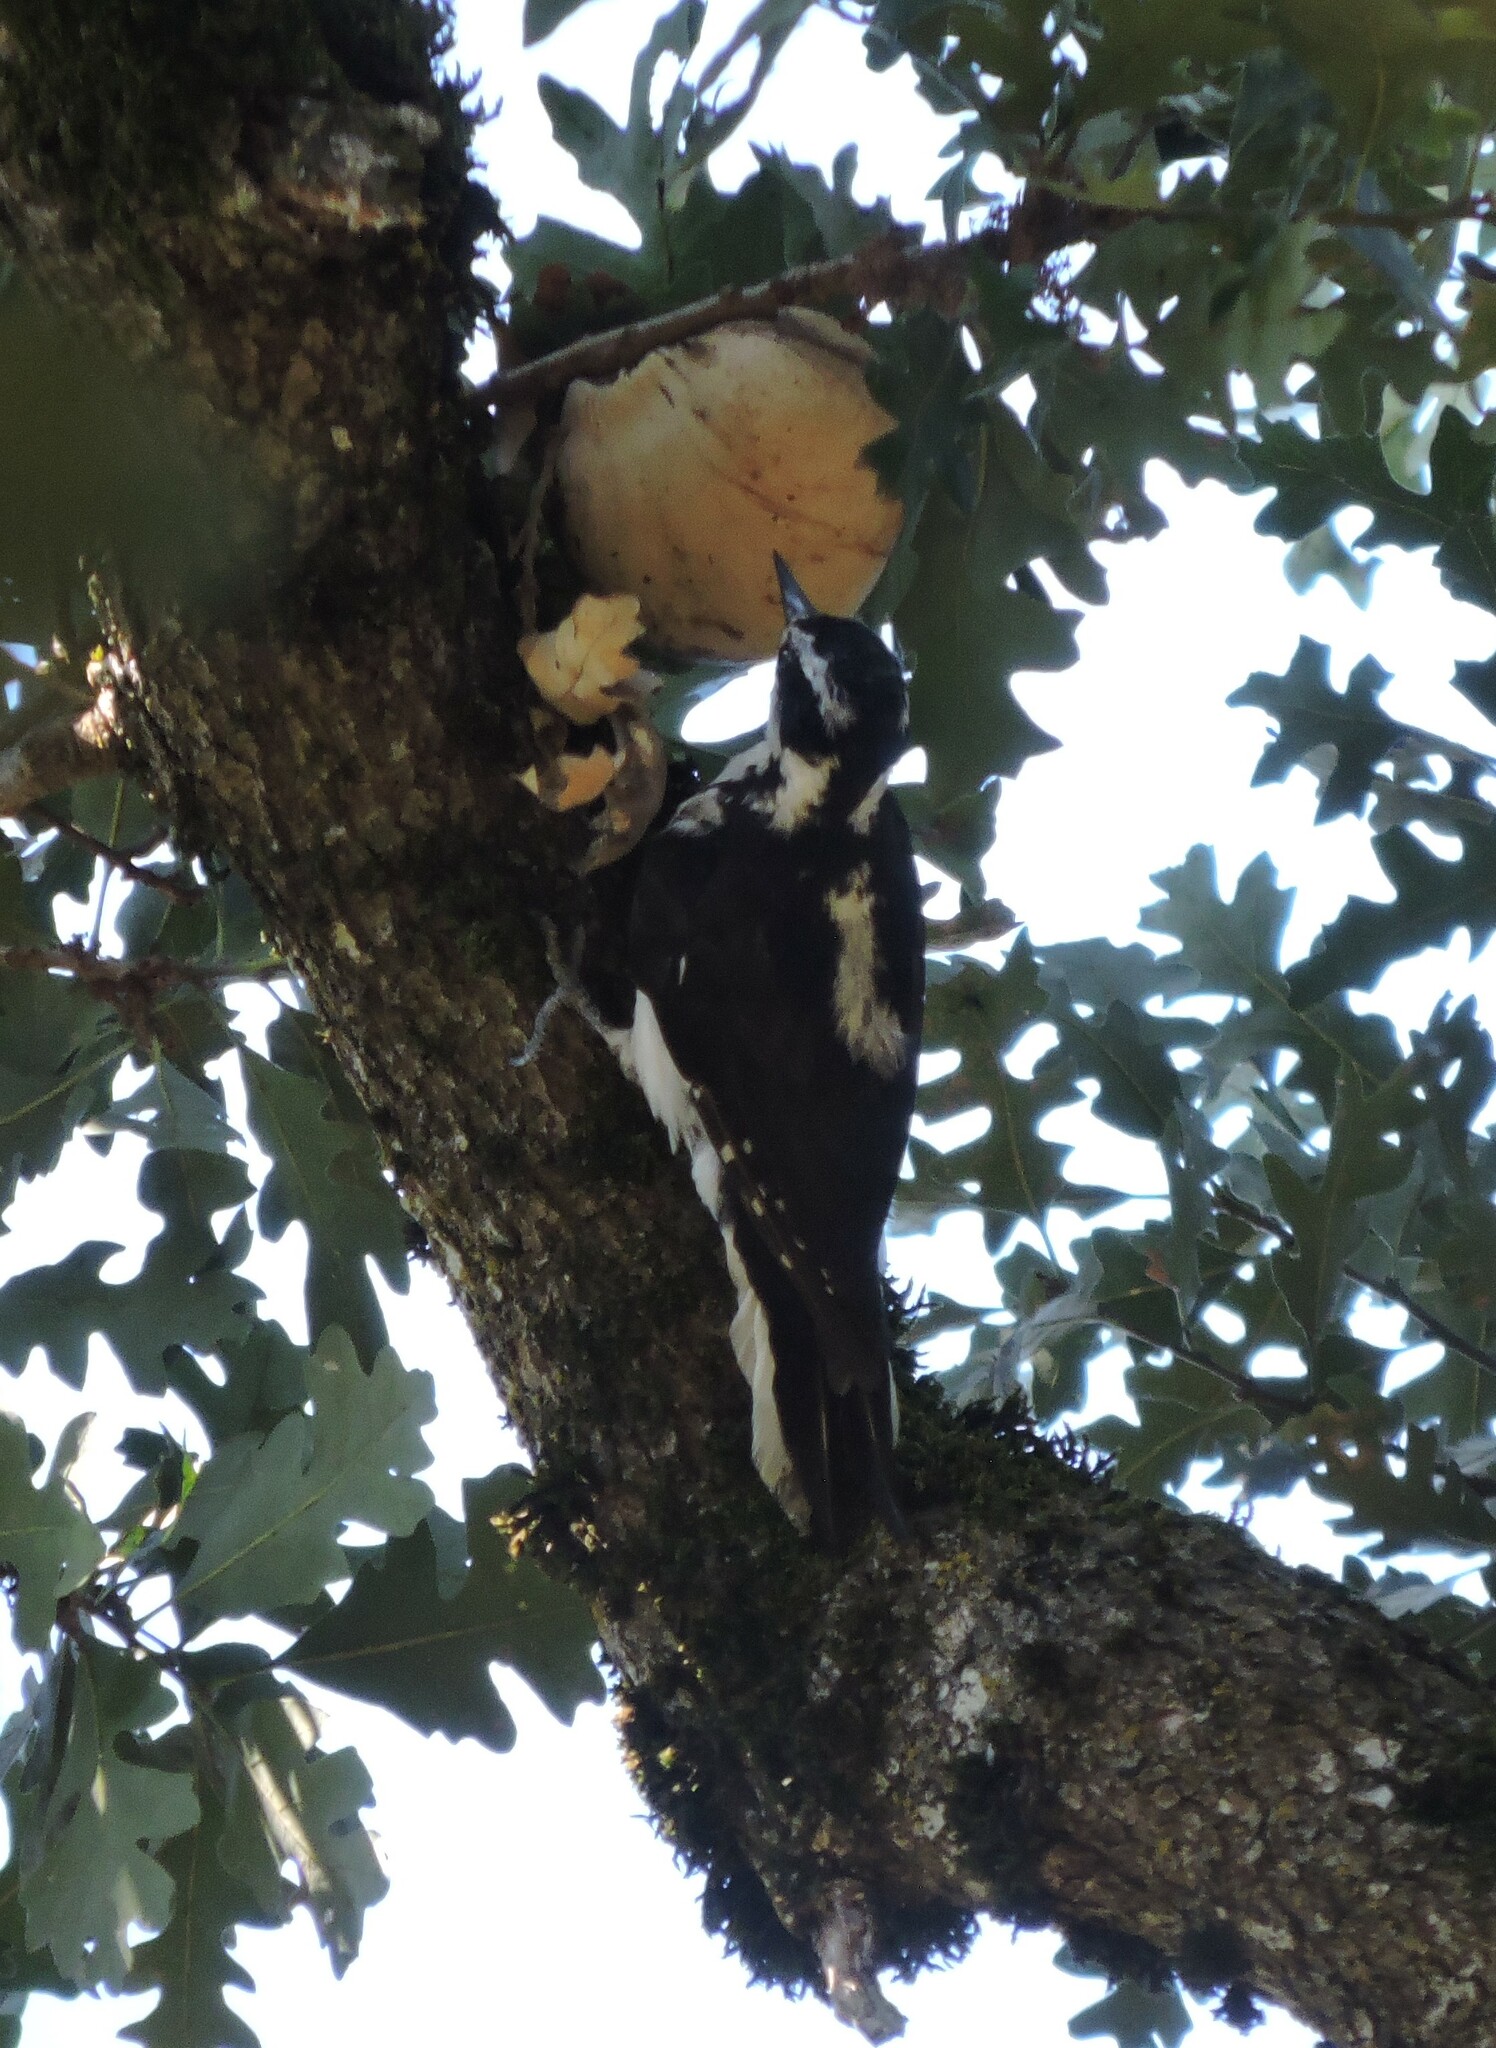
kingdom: Animalia
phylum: Chordata
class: Aves
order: Piciformes
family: Picidae
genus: Leuconotopicus
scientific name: Leuconotopicus villosus
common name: Hairy woodpecker
